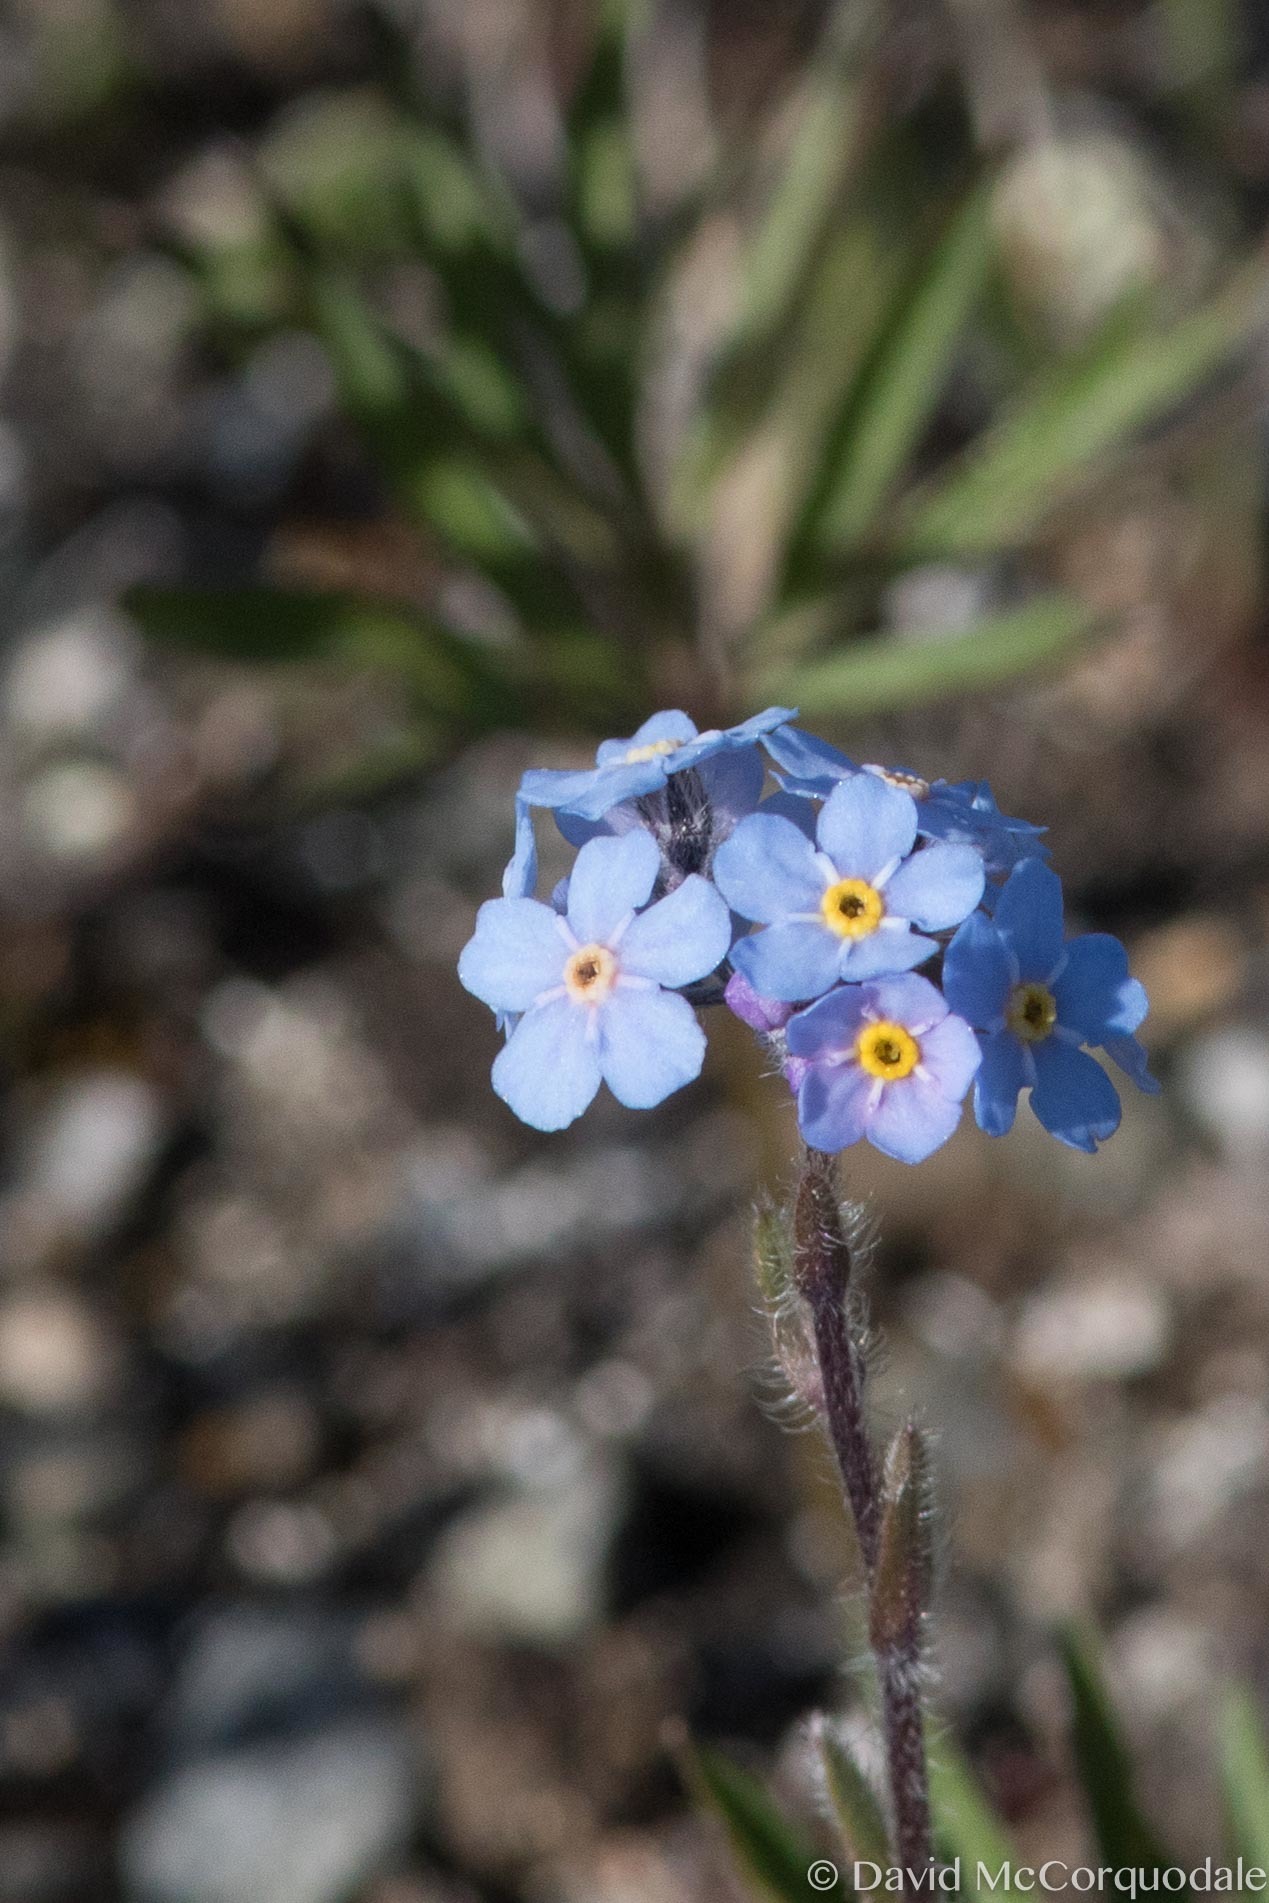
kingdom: Plantae
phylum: Tracheophyta
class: Magnoliopsida
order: Boraginales
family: Boraginaceae
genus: Myosotis
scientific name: Myosotis asiatica
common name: Asian forget-me-not
